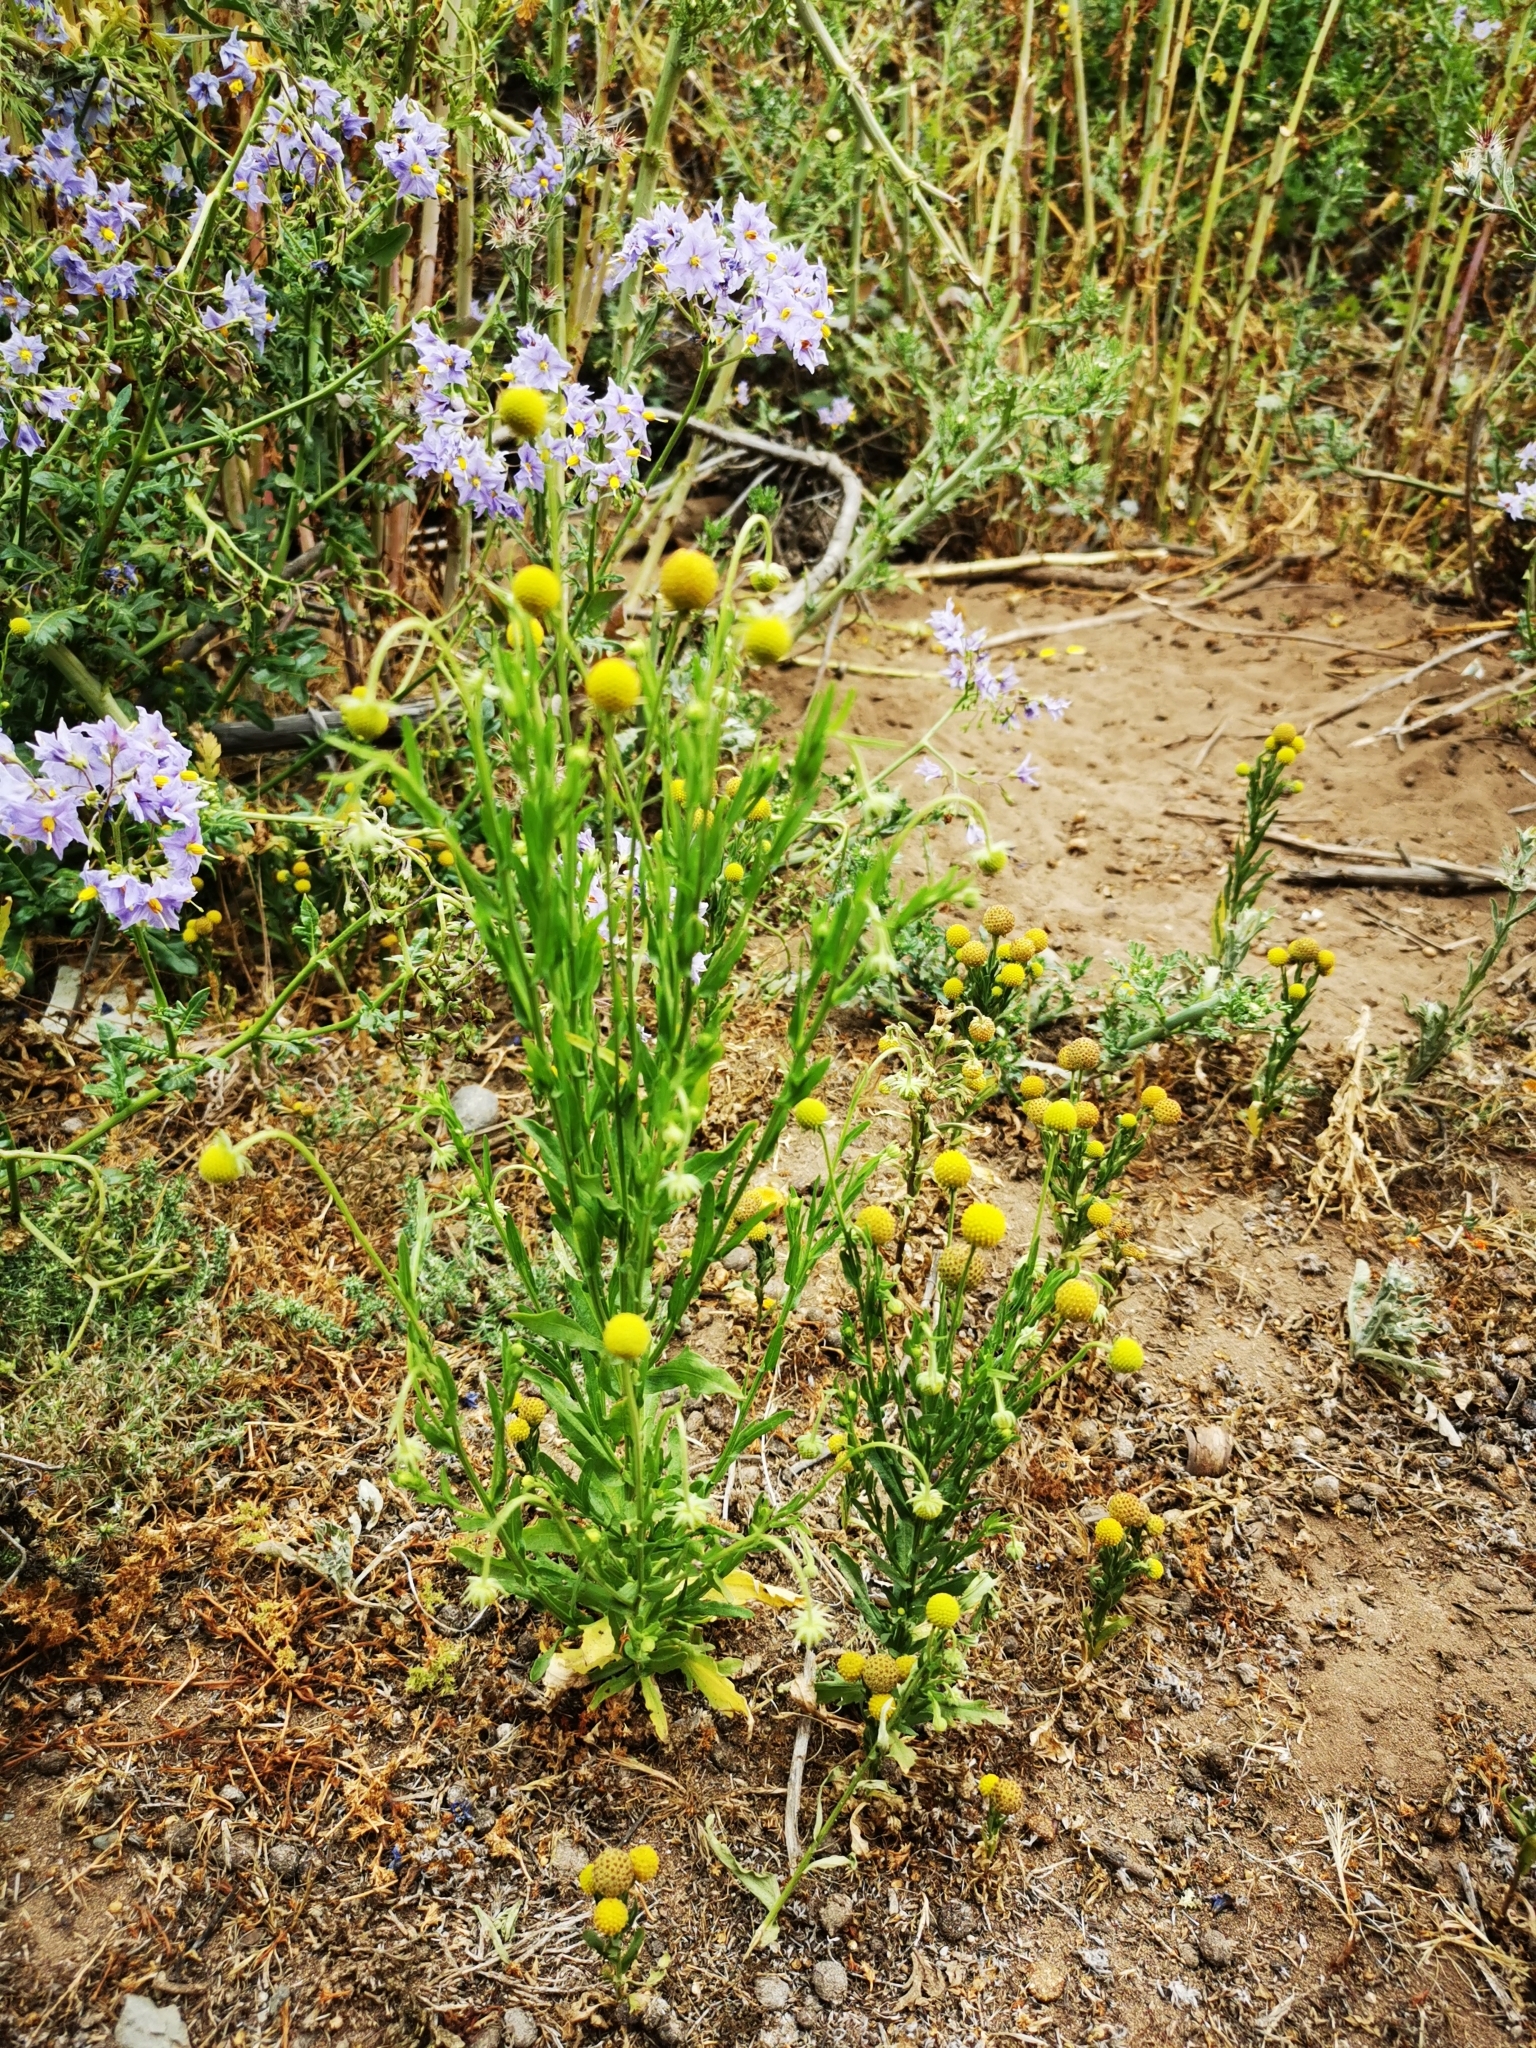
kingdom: Plantae
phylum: Tracheophyta
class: Magnoliopsida
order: Asterales
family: Asteraceae
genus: Helenium
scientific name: Helenium aromaticum
